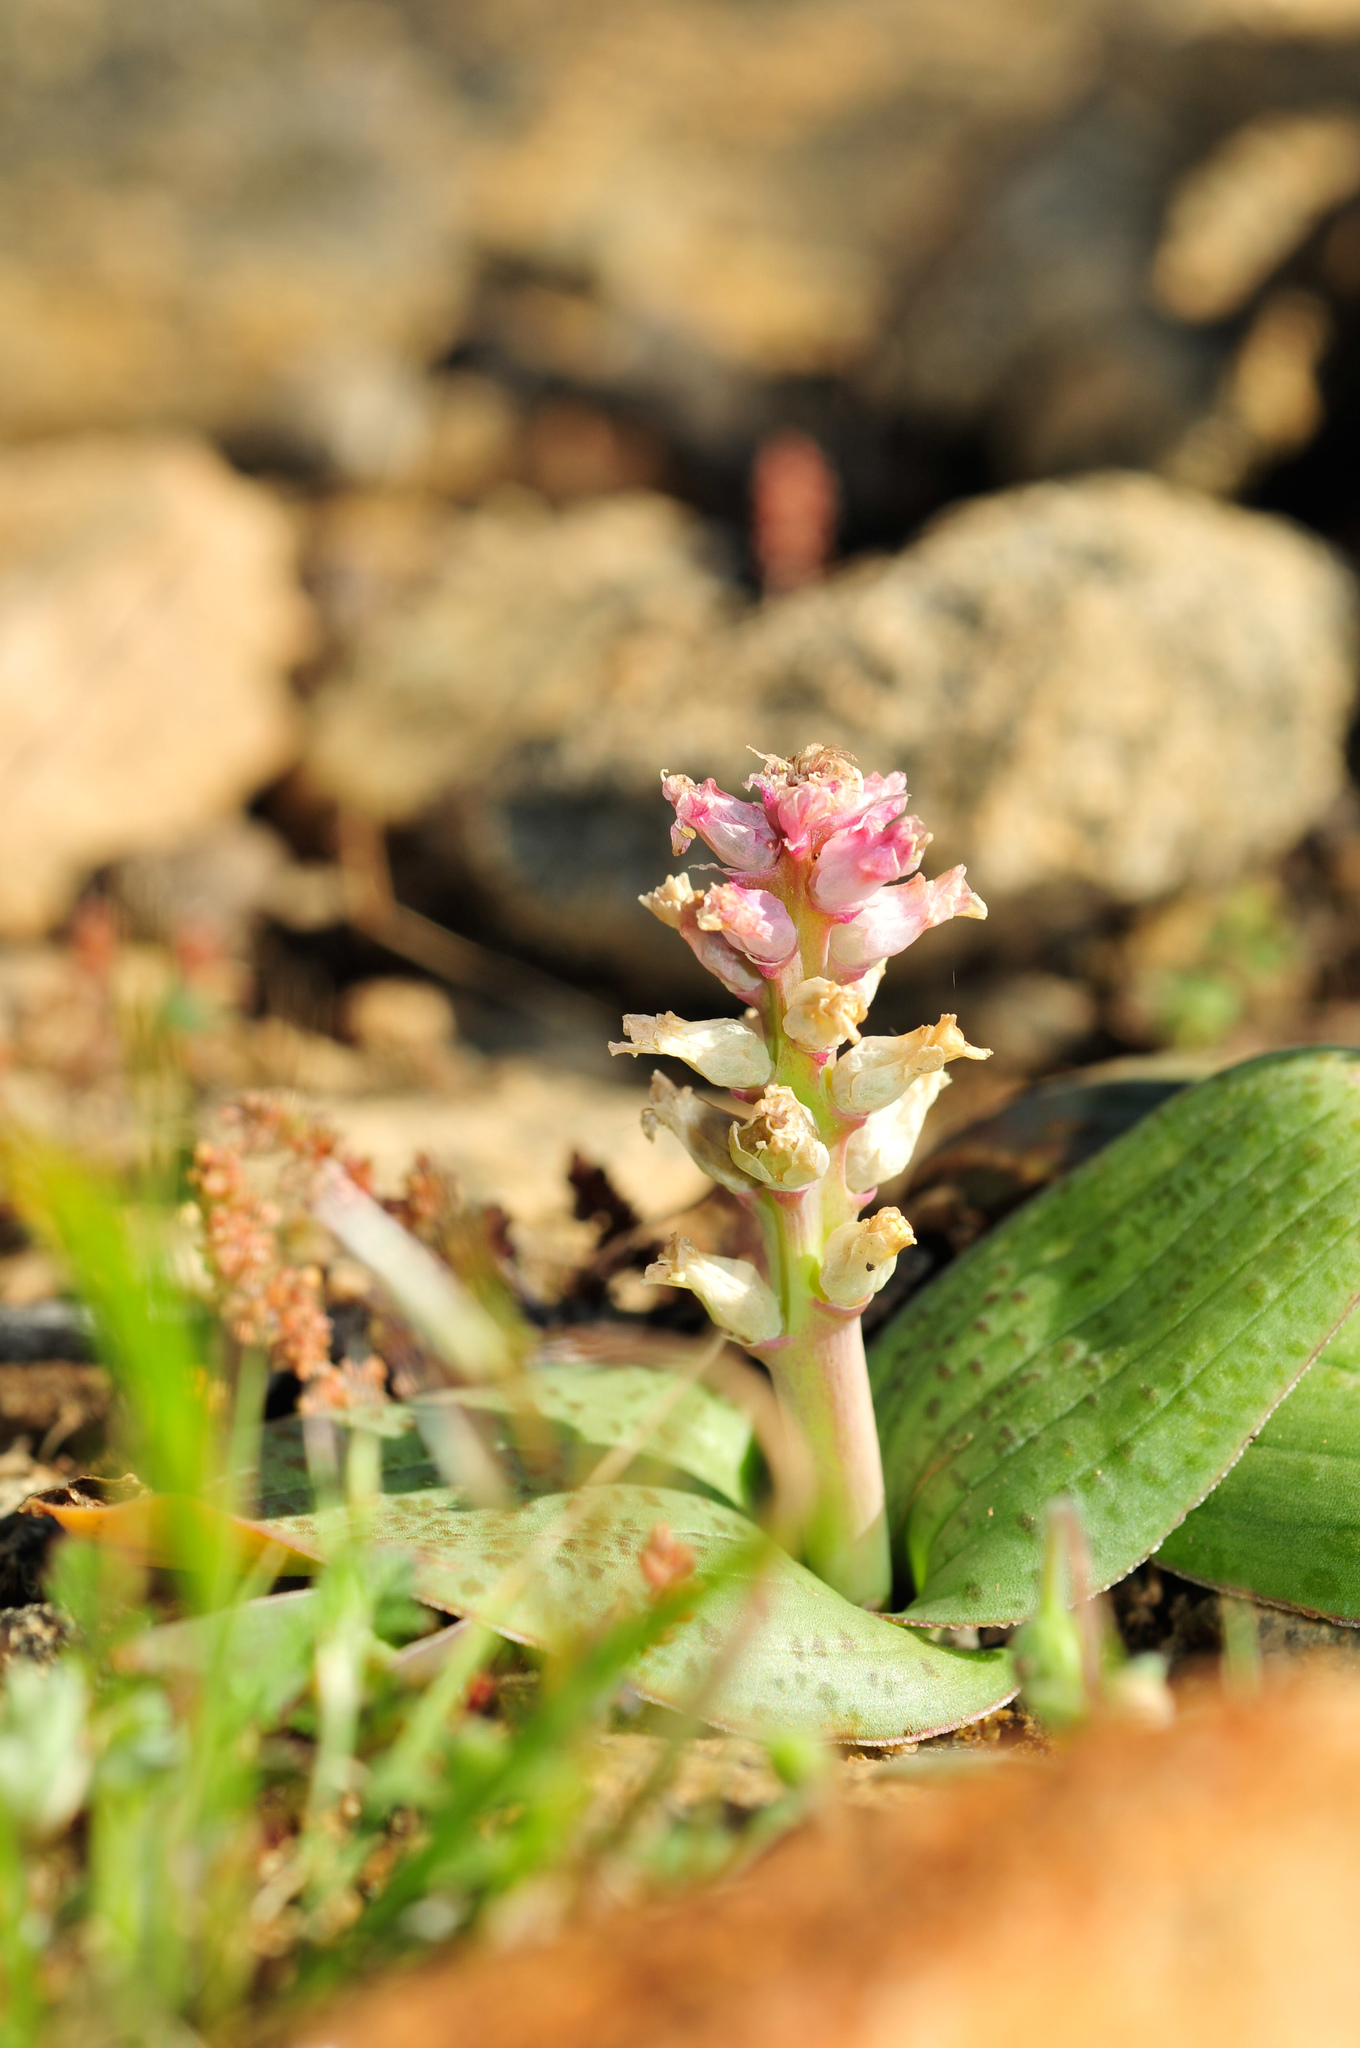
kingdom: Plantae
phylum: Tracheophyta
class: Liliopsida
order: Asparagales
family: Asparagaceae
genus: Lachenalia
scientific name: Lachenalia carnosa
